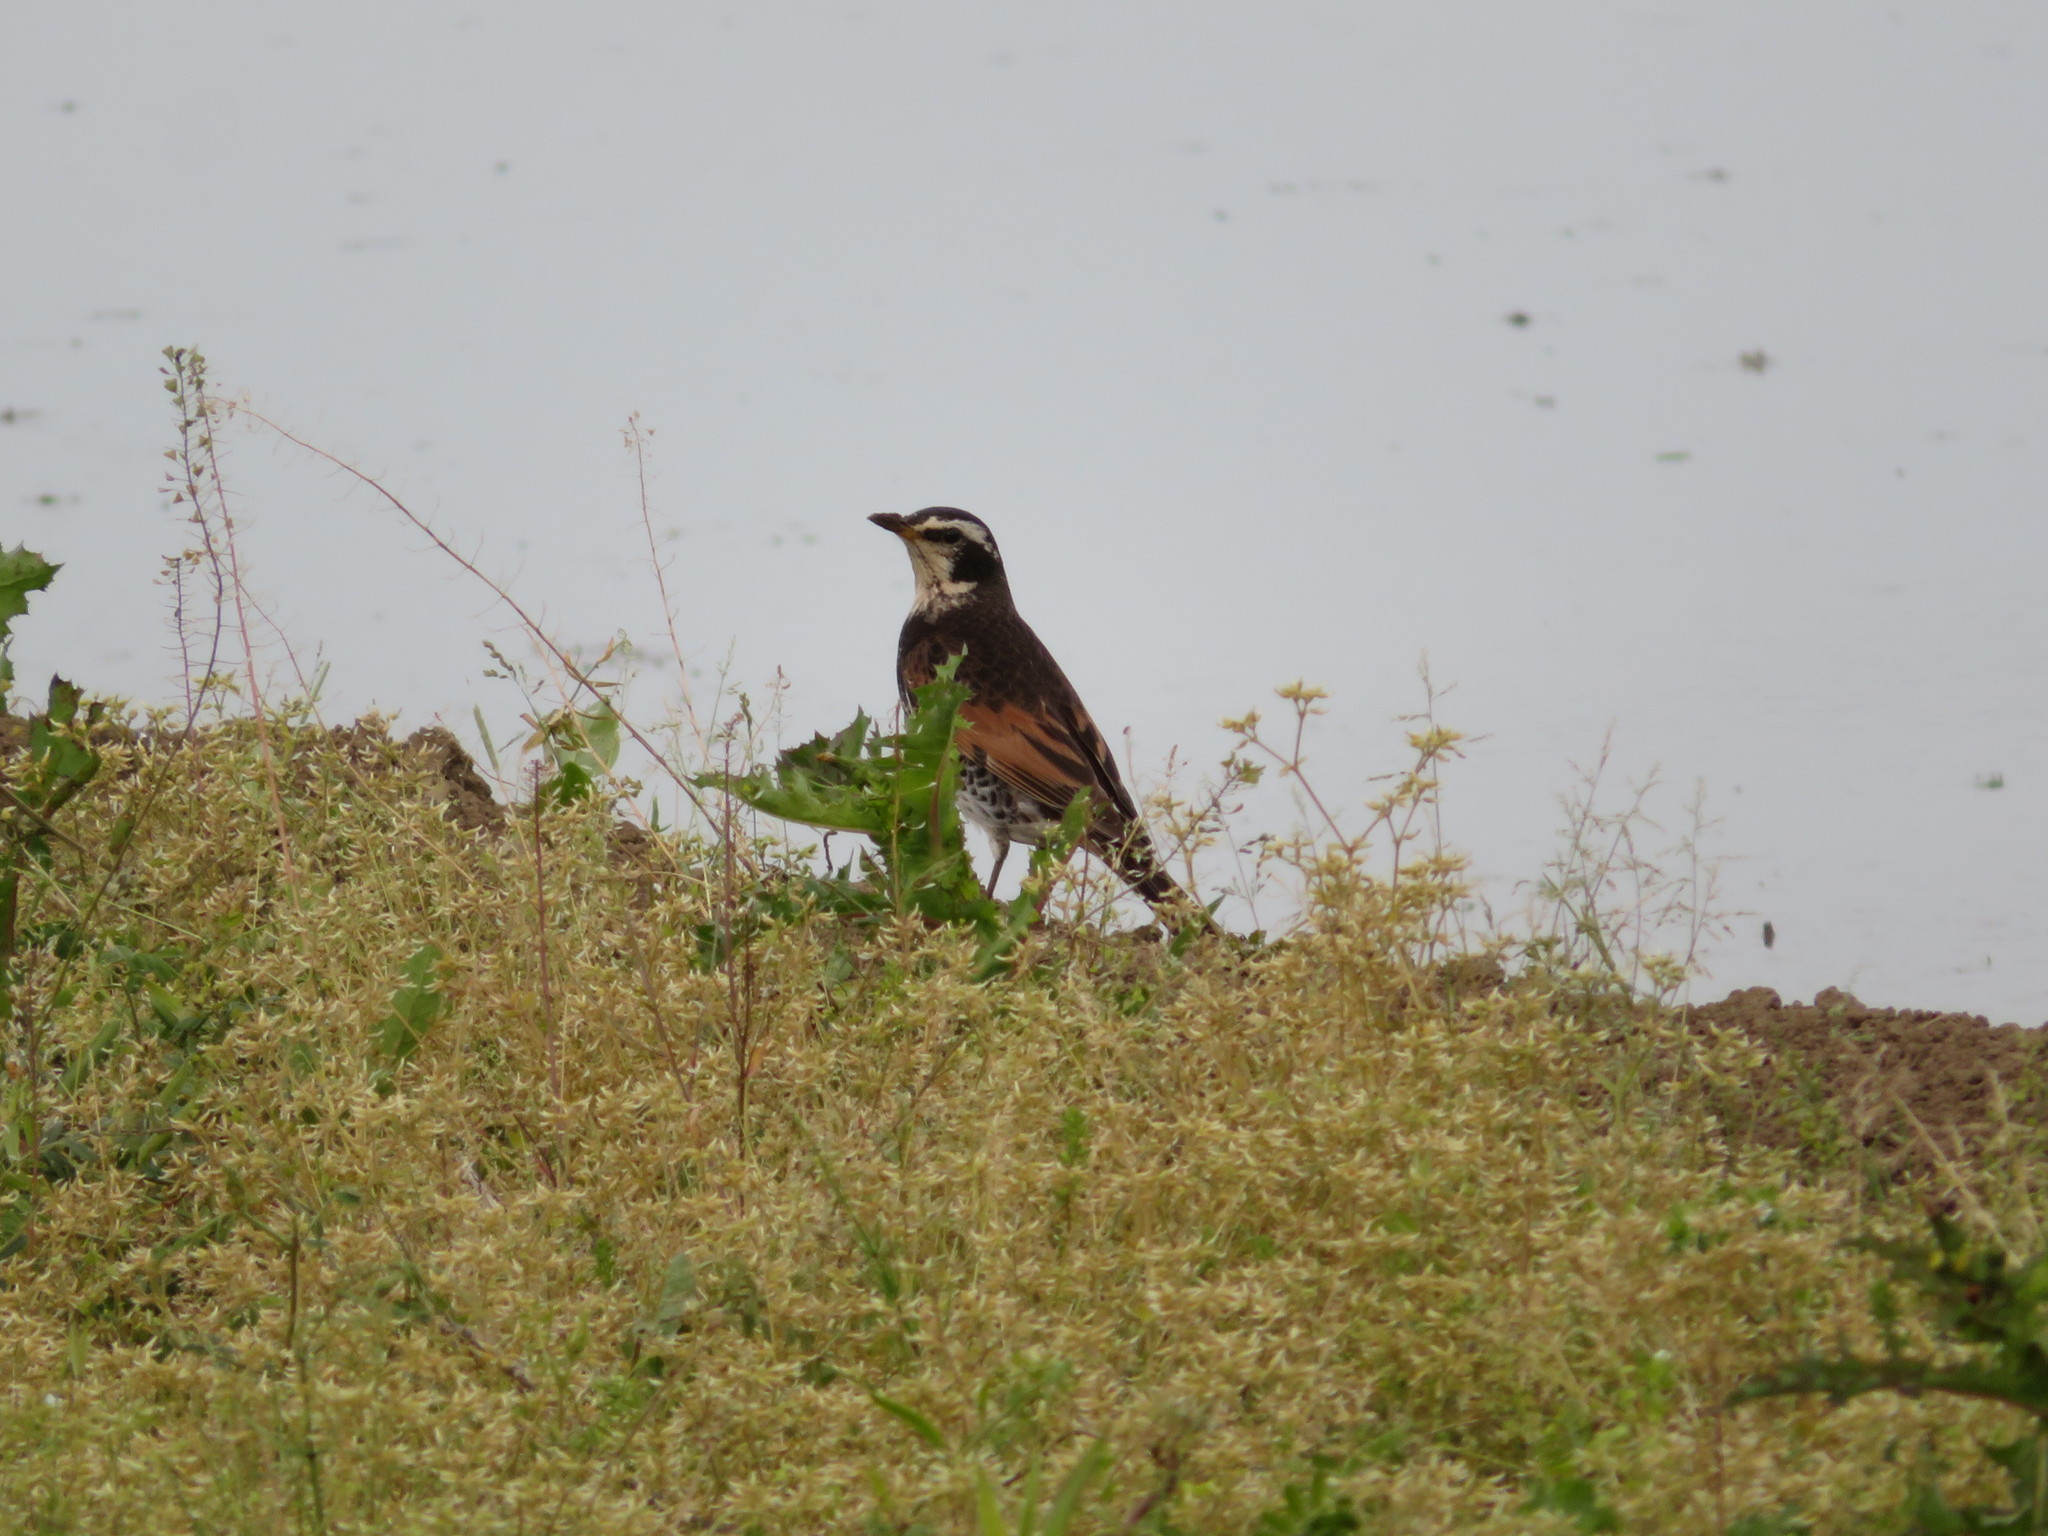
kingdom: Animalia
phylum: Chordata
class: Aves
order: Passeriformes
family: Turdidae
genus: Turdus
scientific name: Turdus eunomus
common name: Dusky thrush
